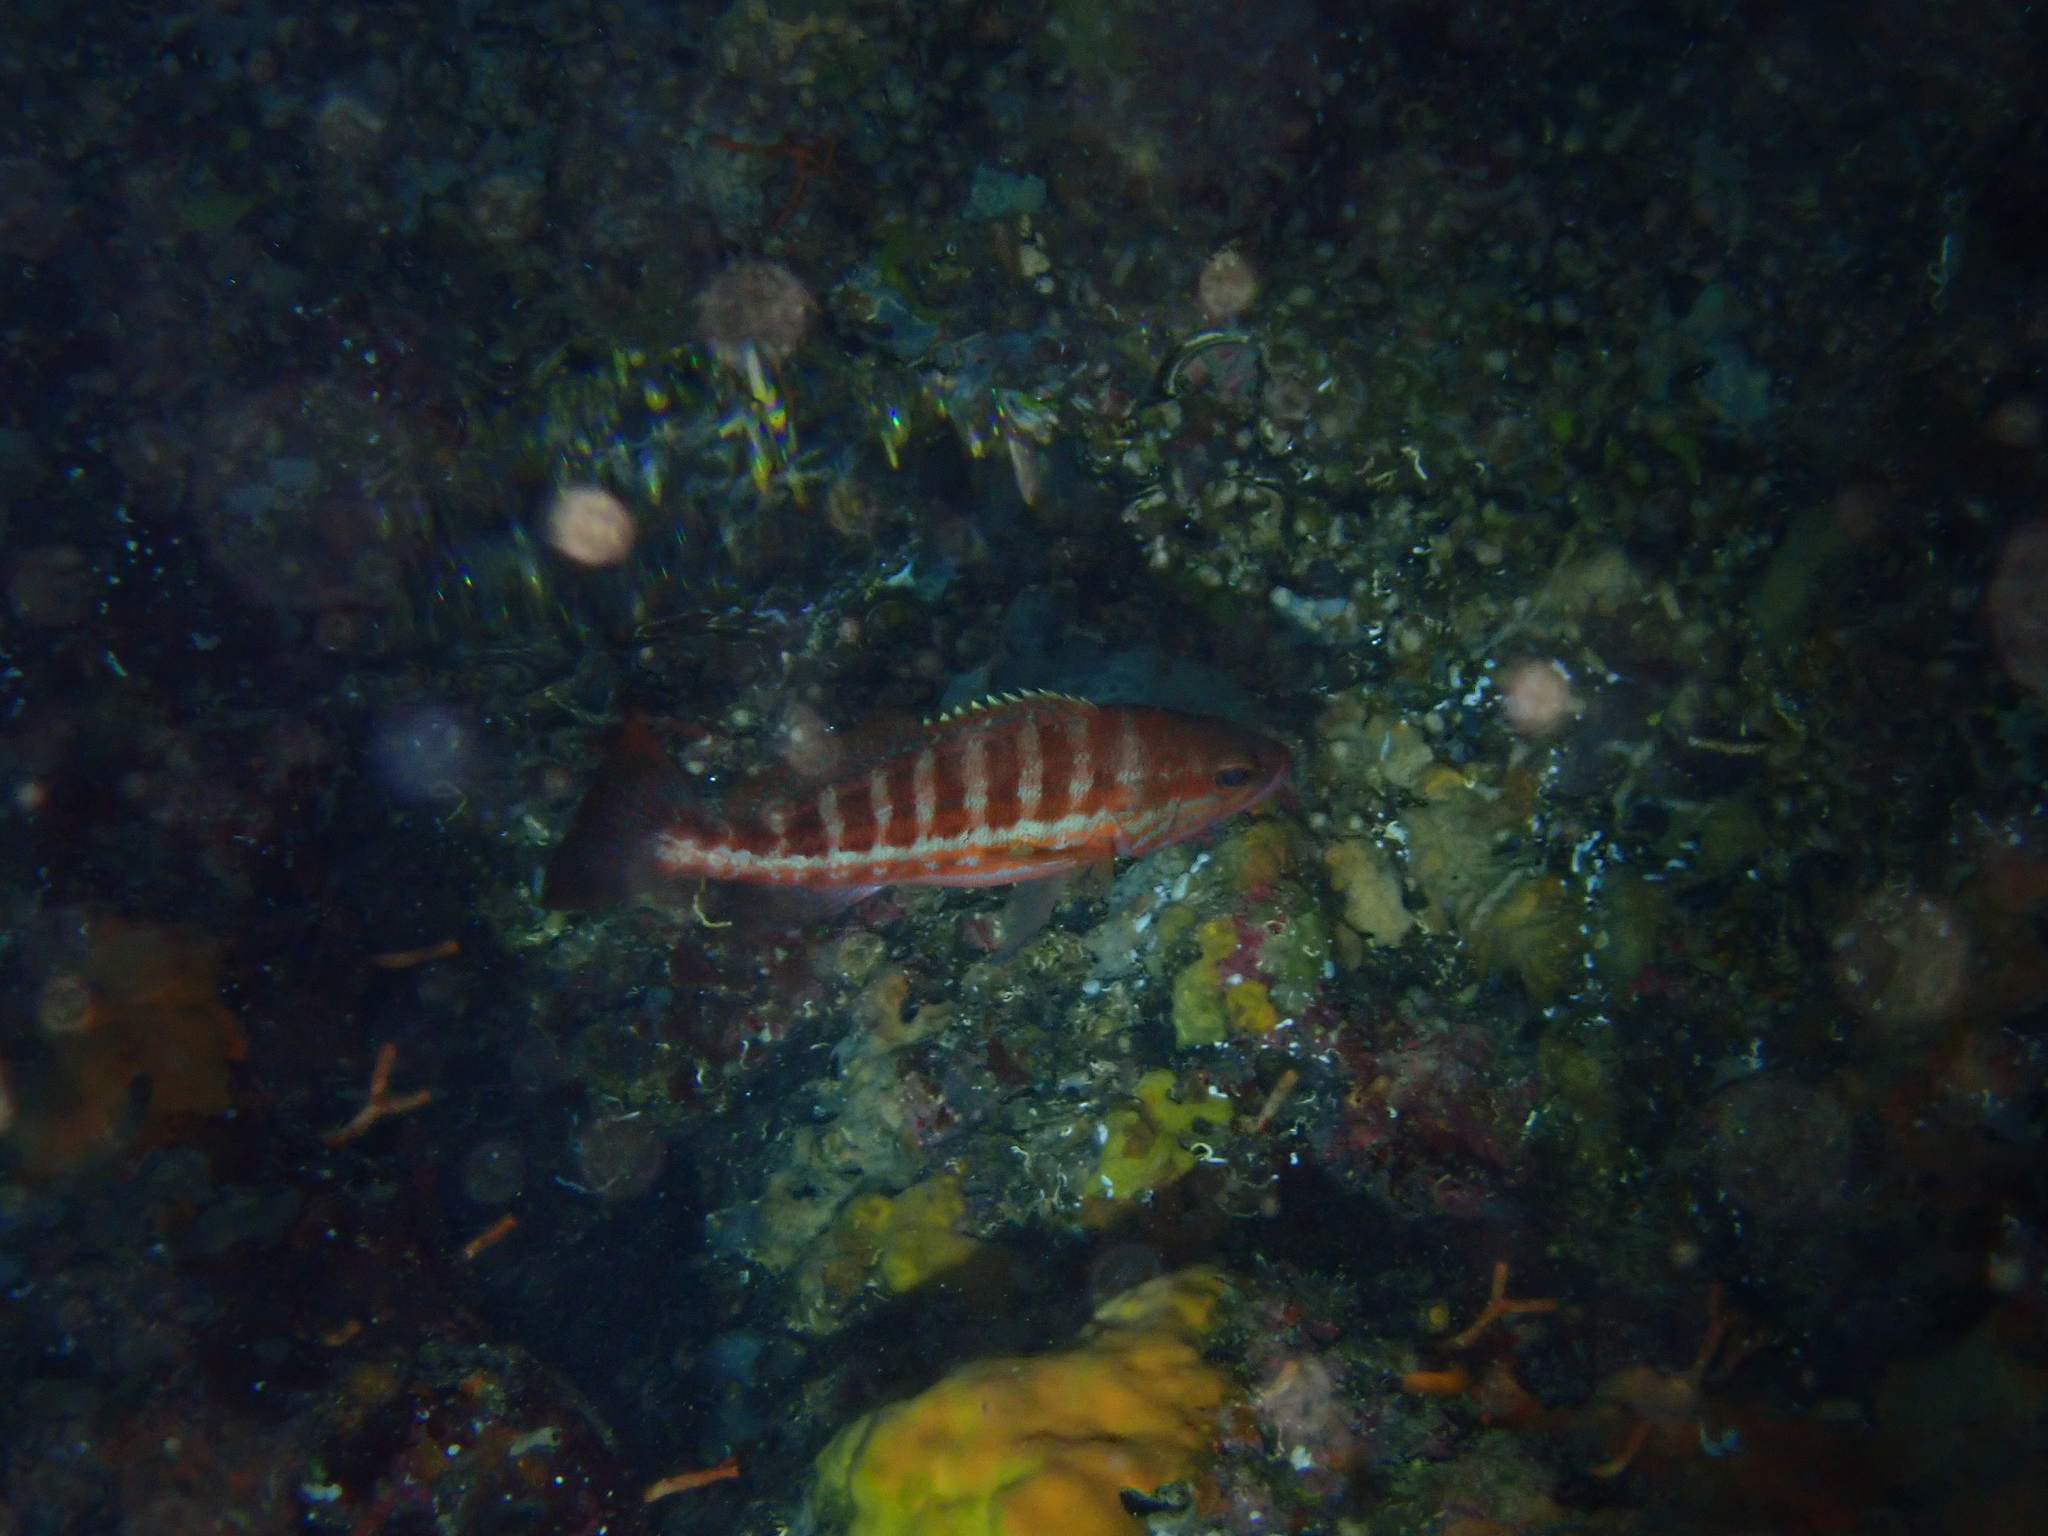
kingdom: Animalia
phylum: Chordata
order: Perciformes
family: Serranidae
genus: Serranus
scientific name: Serranus cabrilla
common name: Comber
